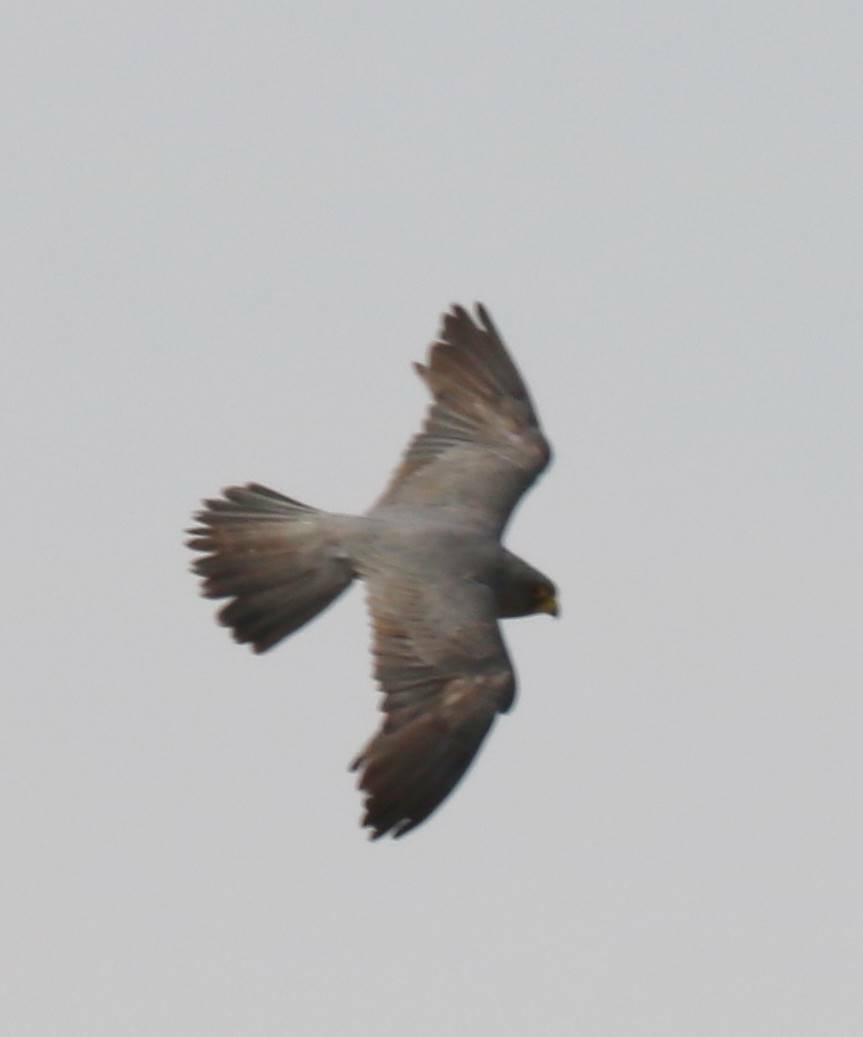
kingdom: Animalia
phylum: Chordata
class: Aves
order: Falconiformes
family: Falconidae
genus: Falco
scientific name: Falco concolor
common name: Sooty falcon
